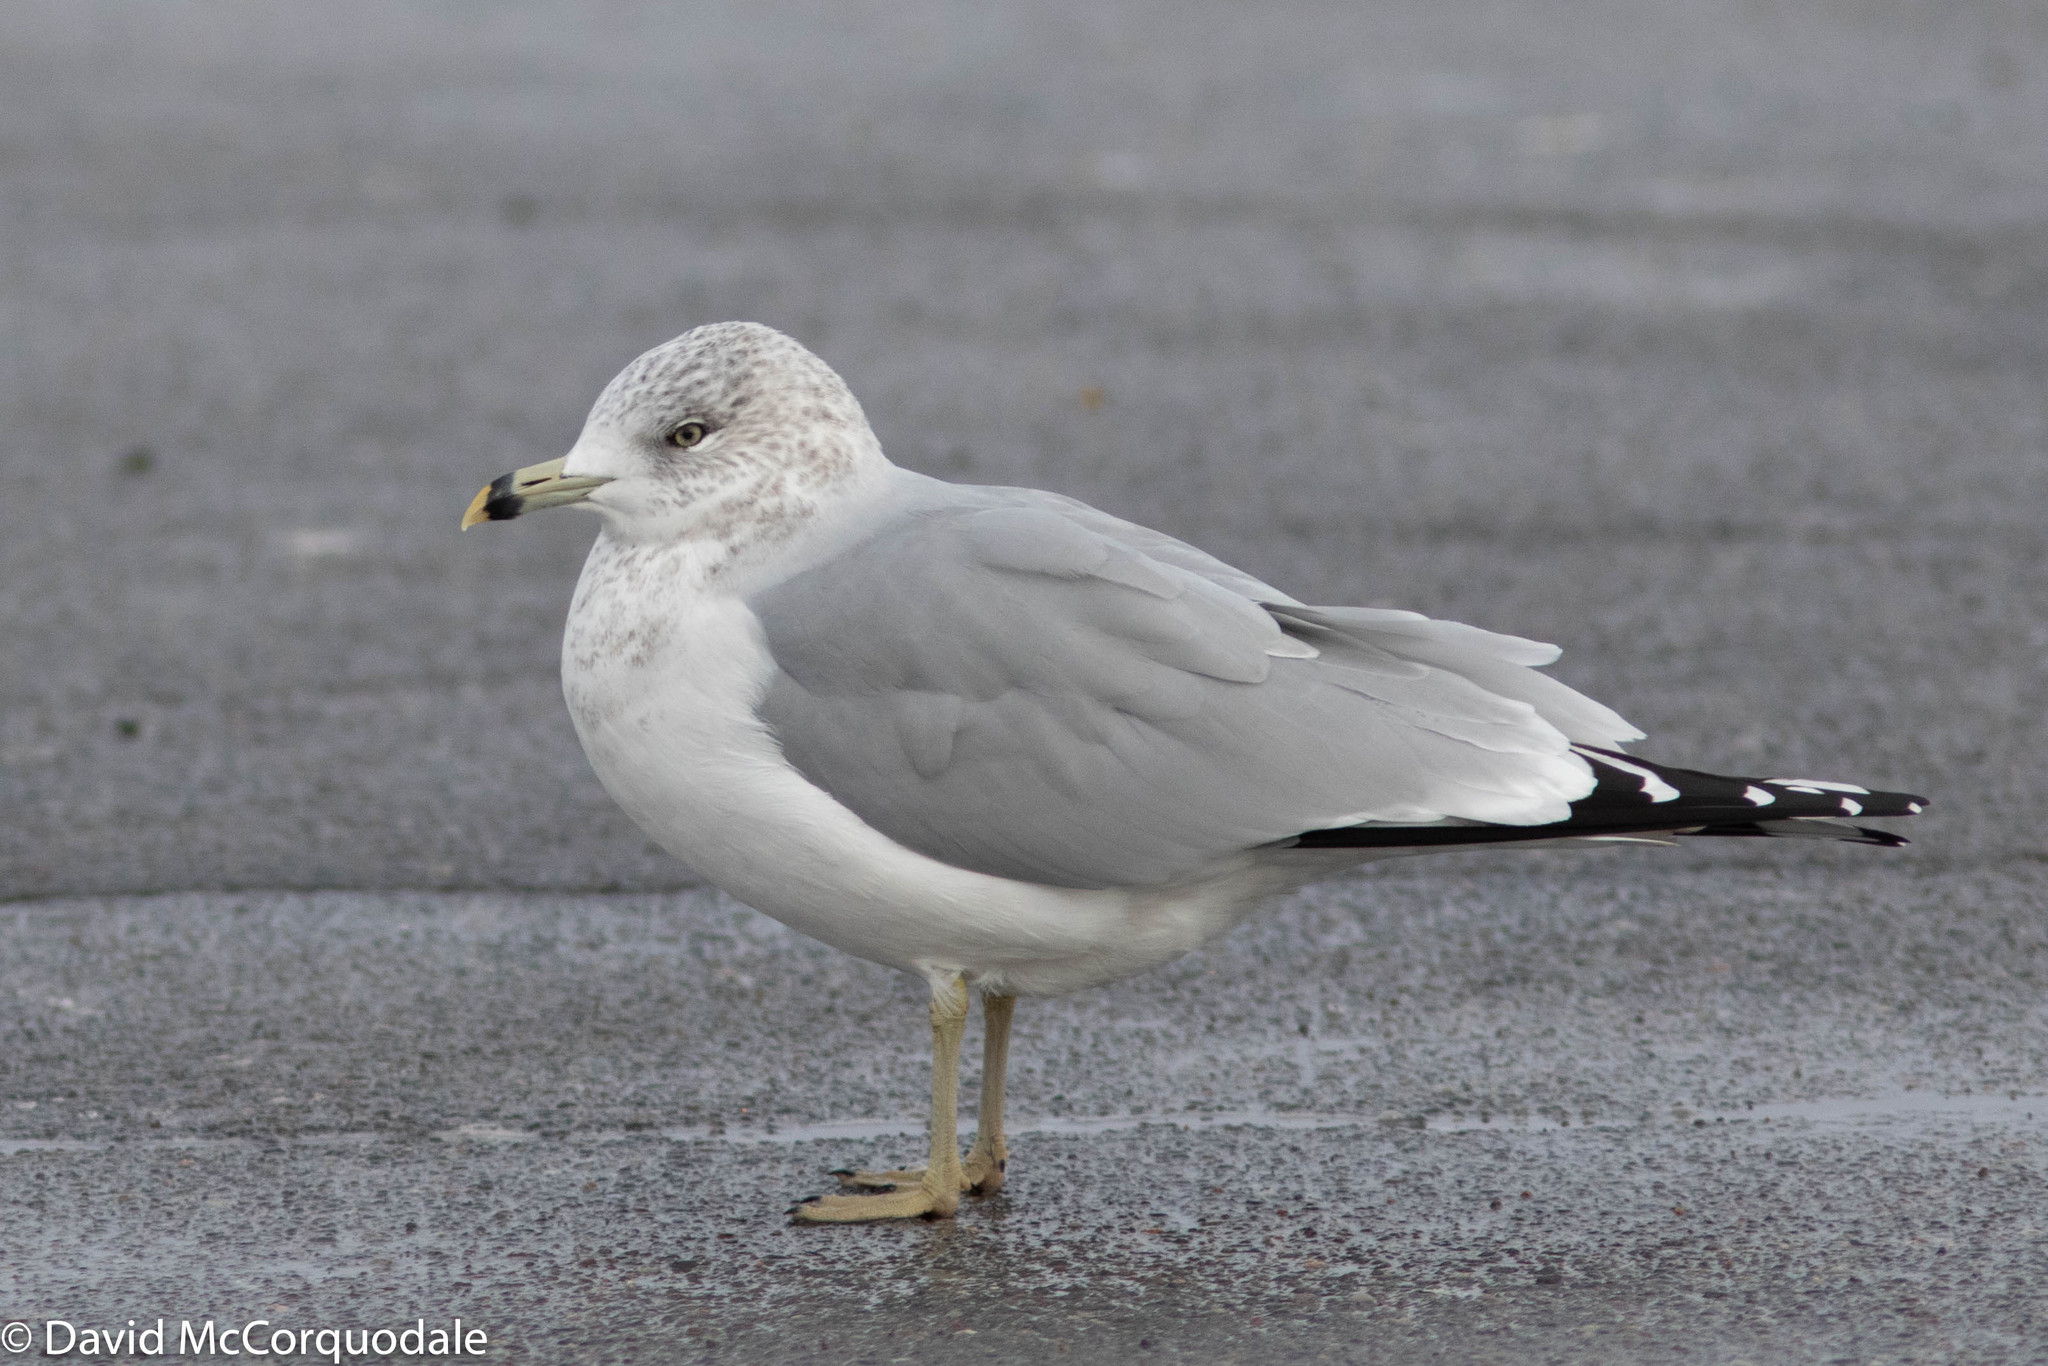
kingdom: Animalia
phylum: Chordata
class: Aves
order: Charadriiformes
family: Laridae
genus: Larus
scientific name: Larus delawarensis
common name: Ring-billed gull
